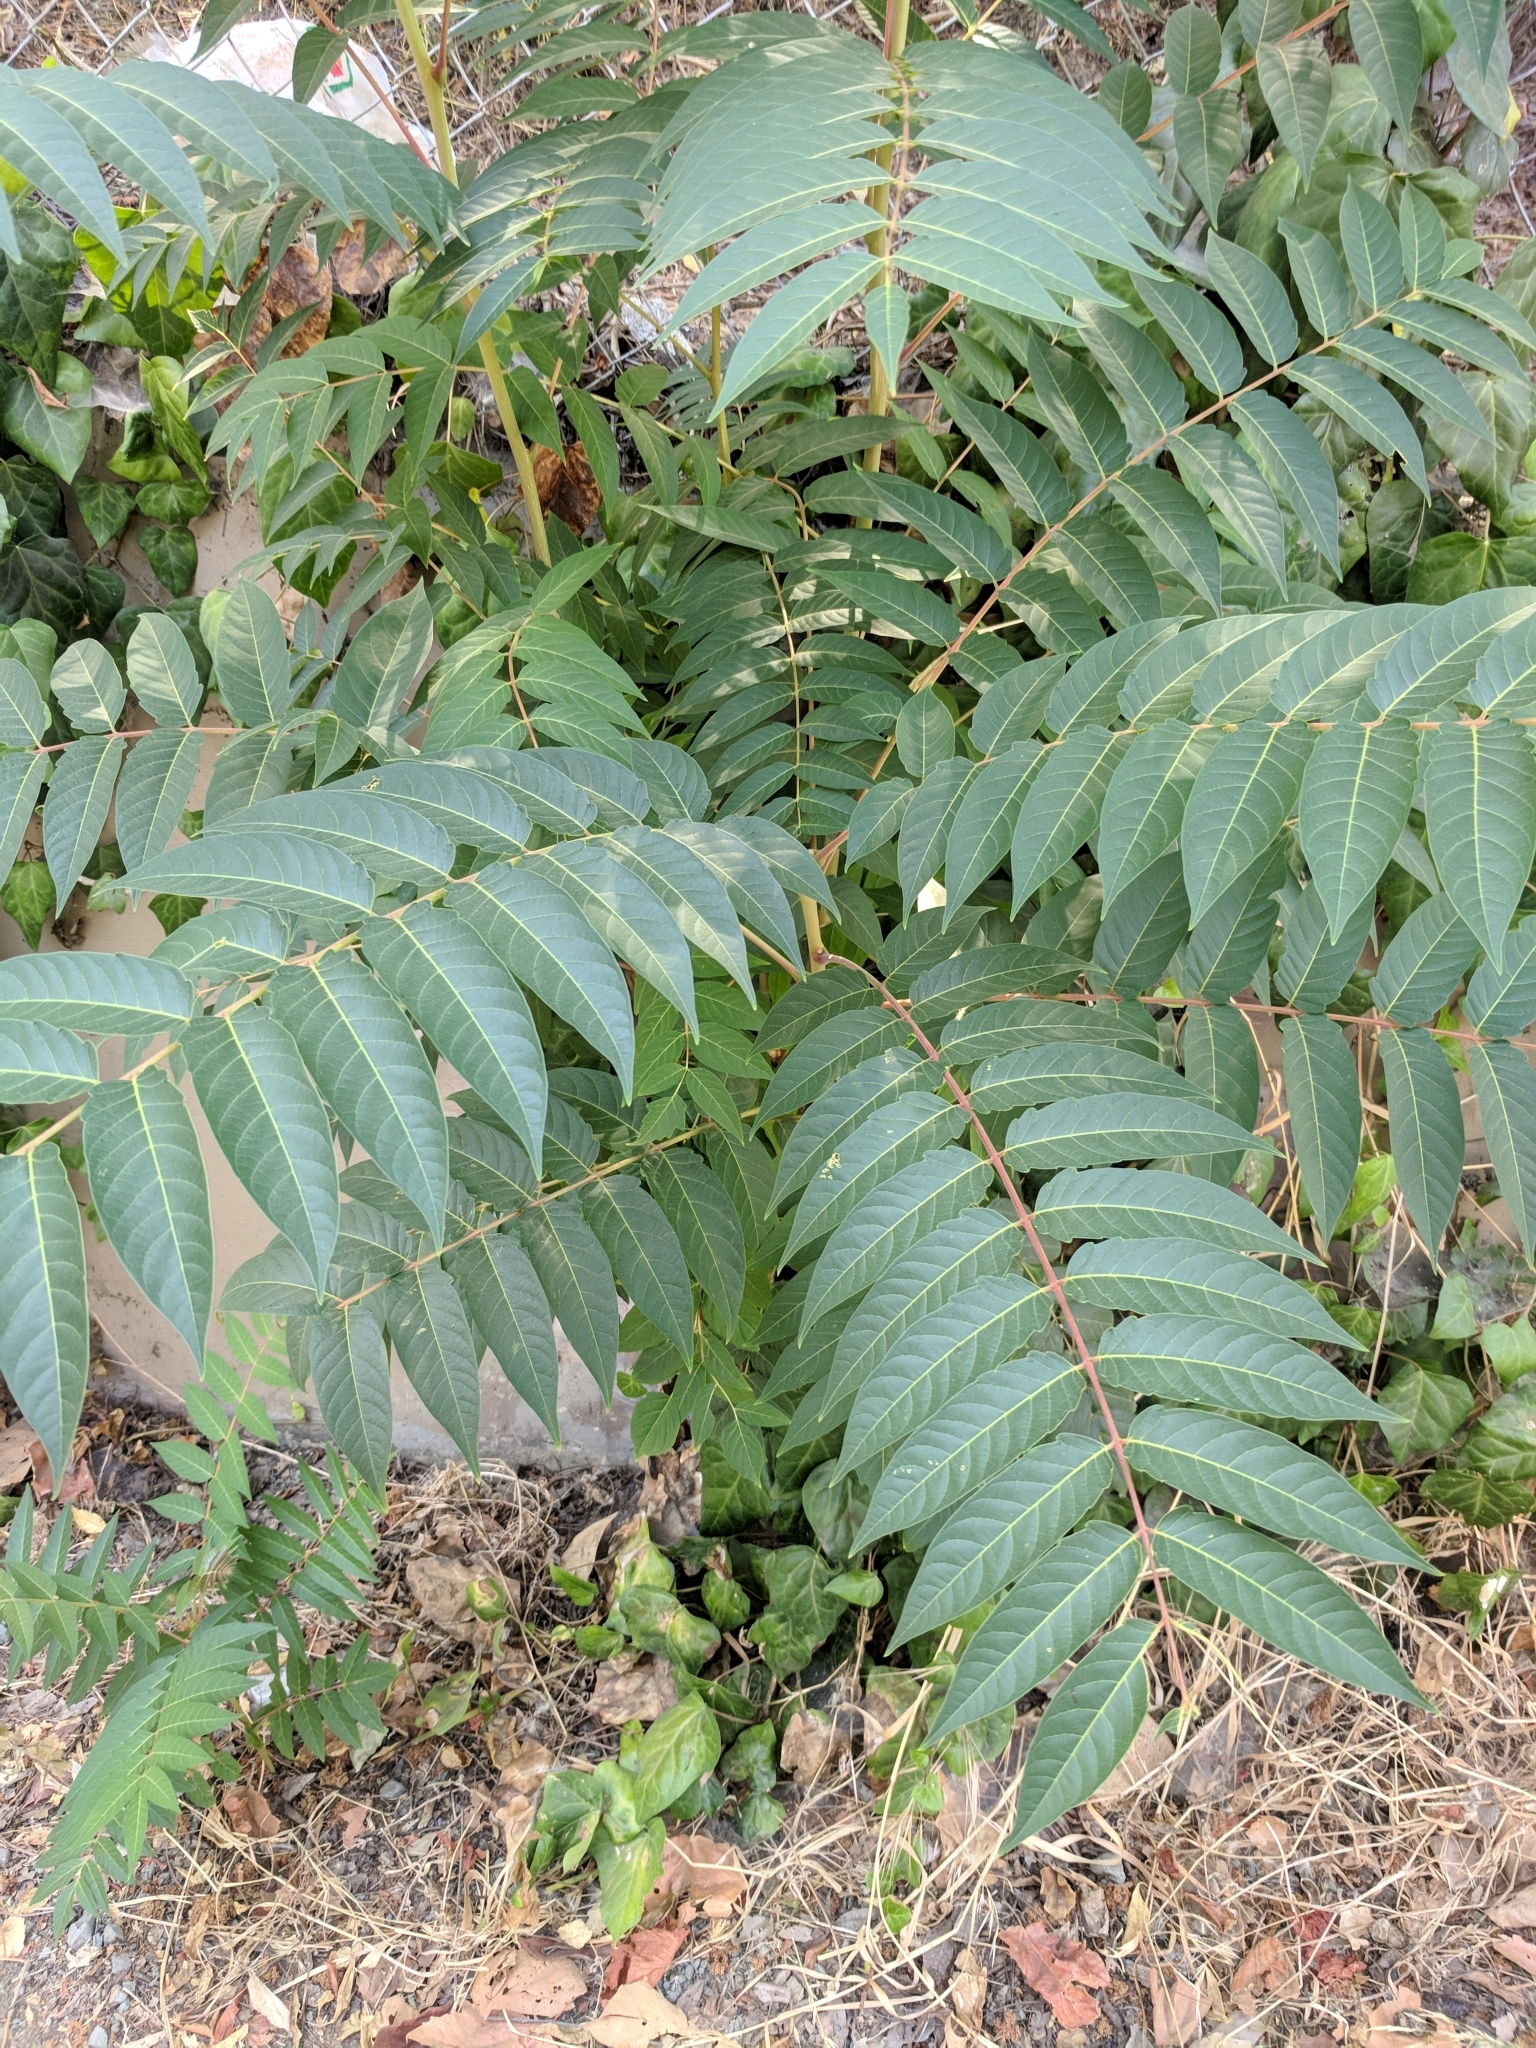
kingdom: Plantae
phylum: Tracheophyta
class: Magnoliopsida
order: Sapindales
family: Simaroubaceae
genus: Ailanthus
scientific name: Ailanthus altissima
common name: Tree-of-heaven
